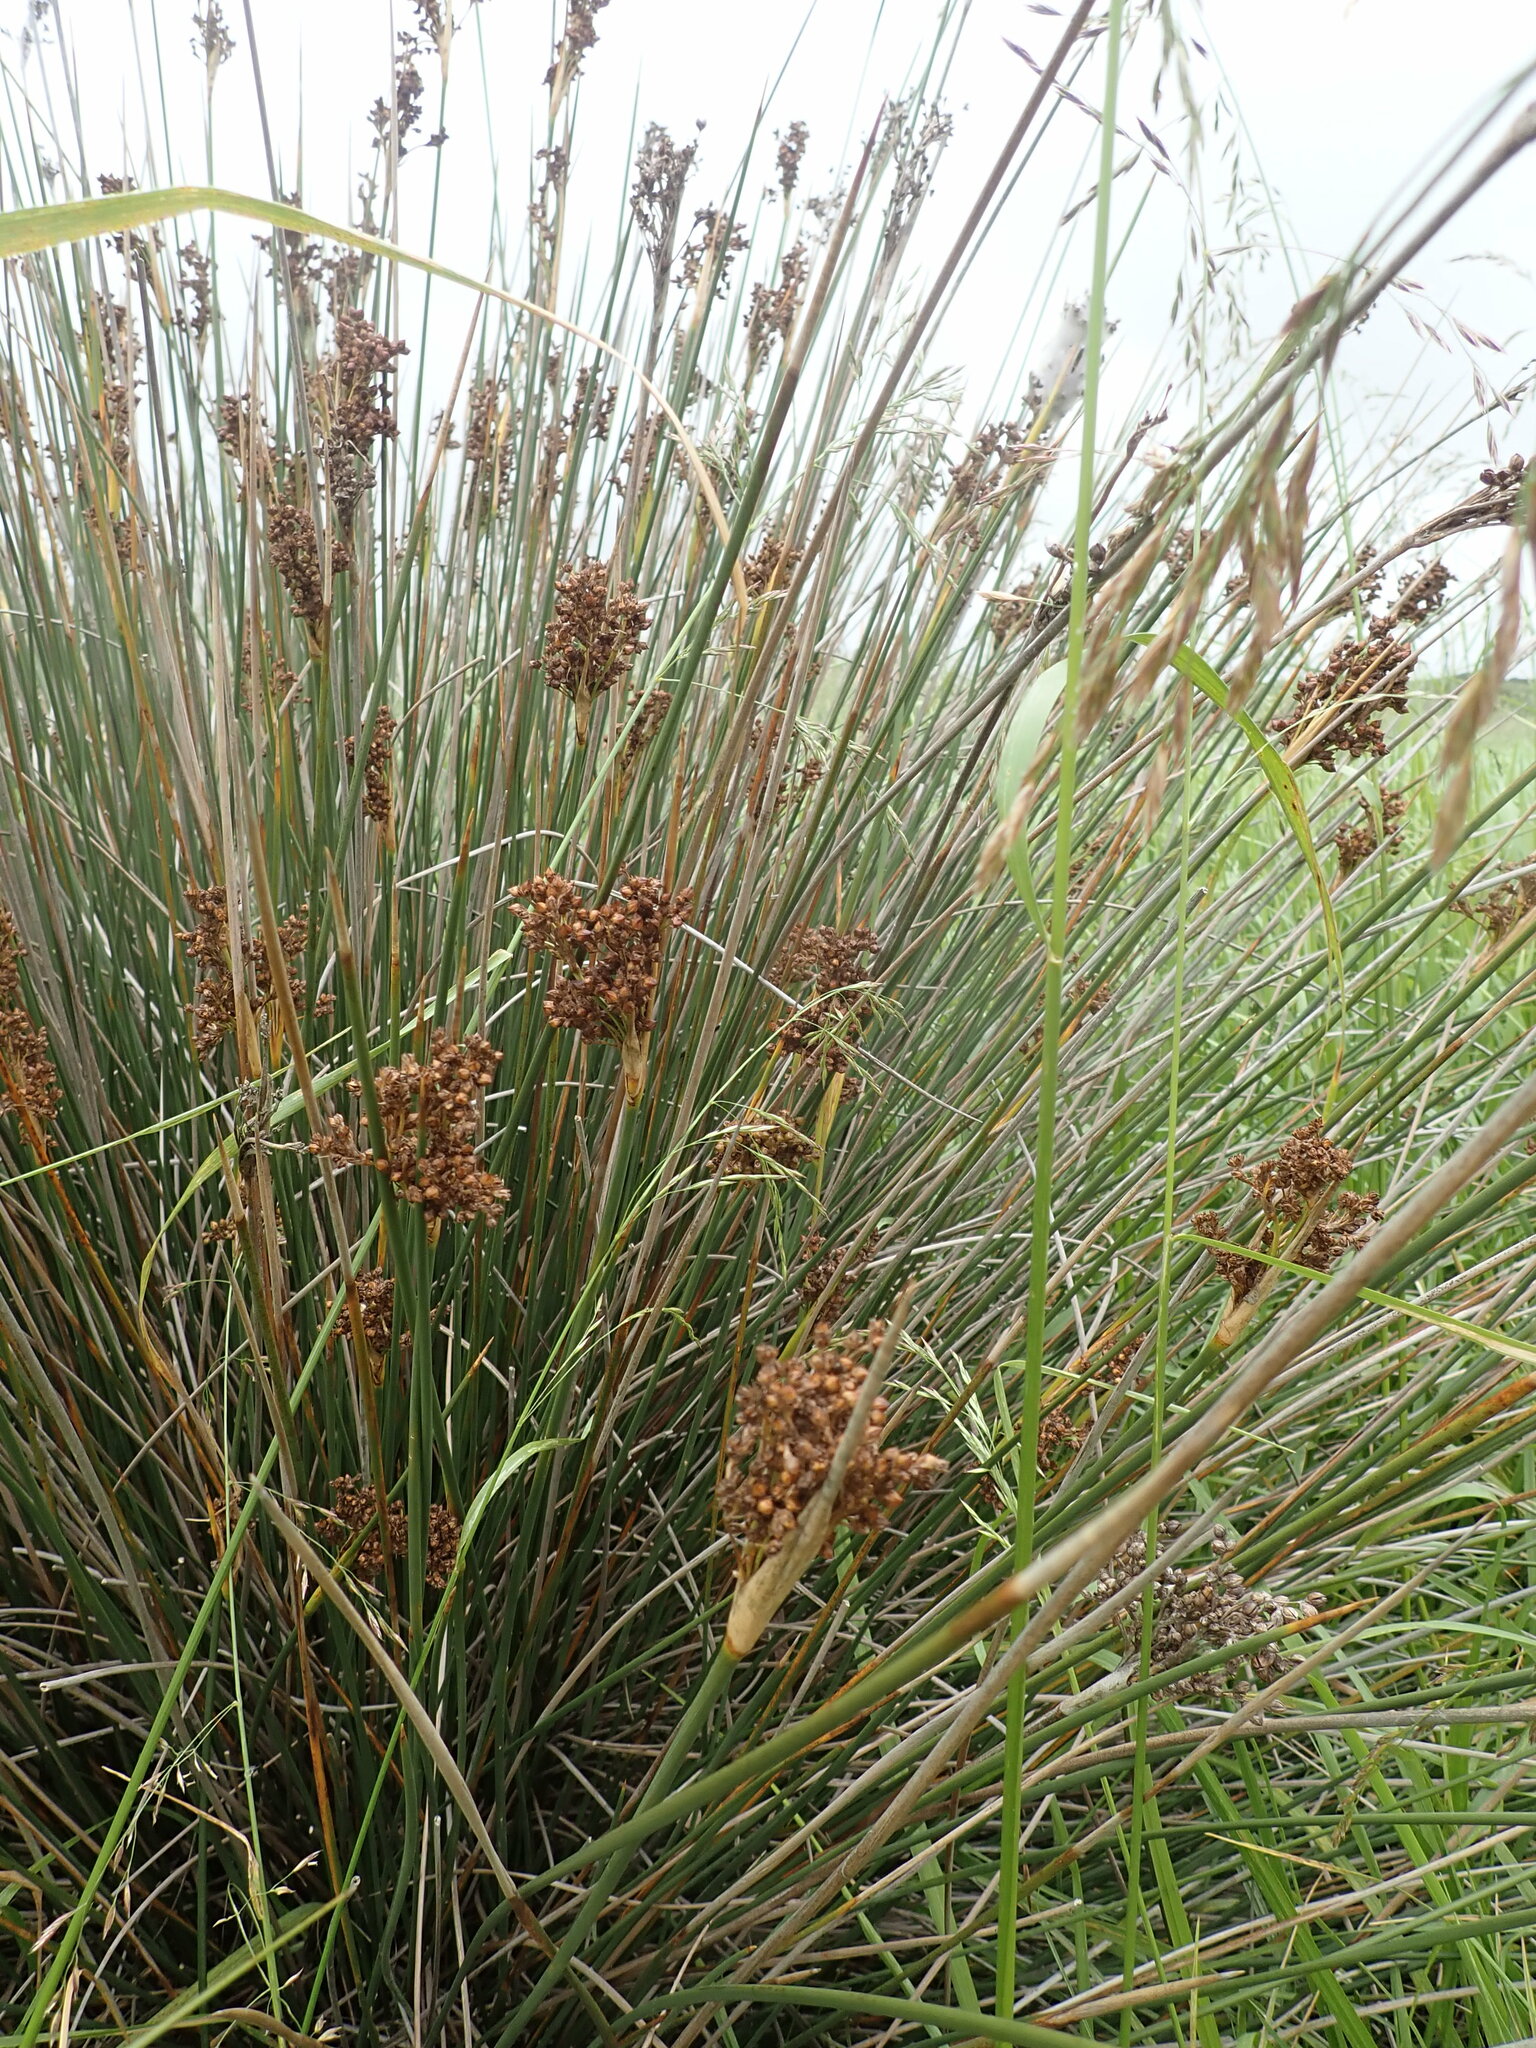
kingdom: Plantae
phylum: Tracheophyta
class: Liliopsida
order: Poales
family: Juncaceae
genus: Juncus
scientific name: Juncus acutus
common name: Sharp rush
